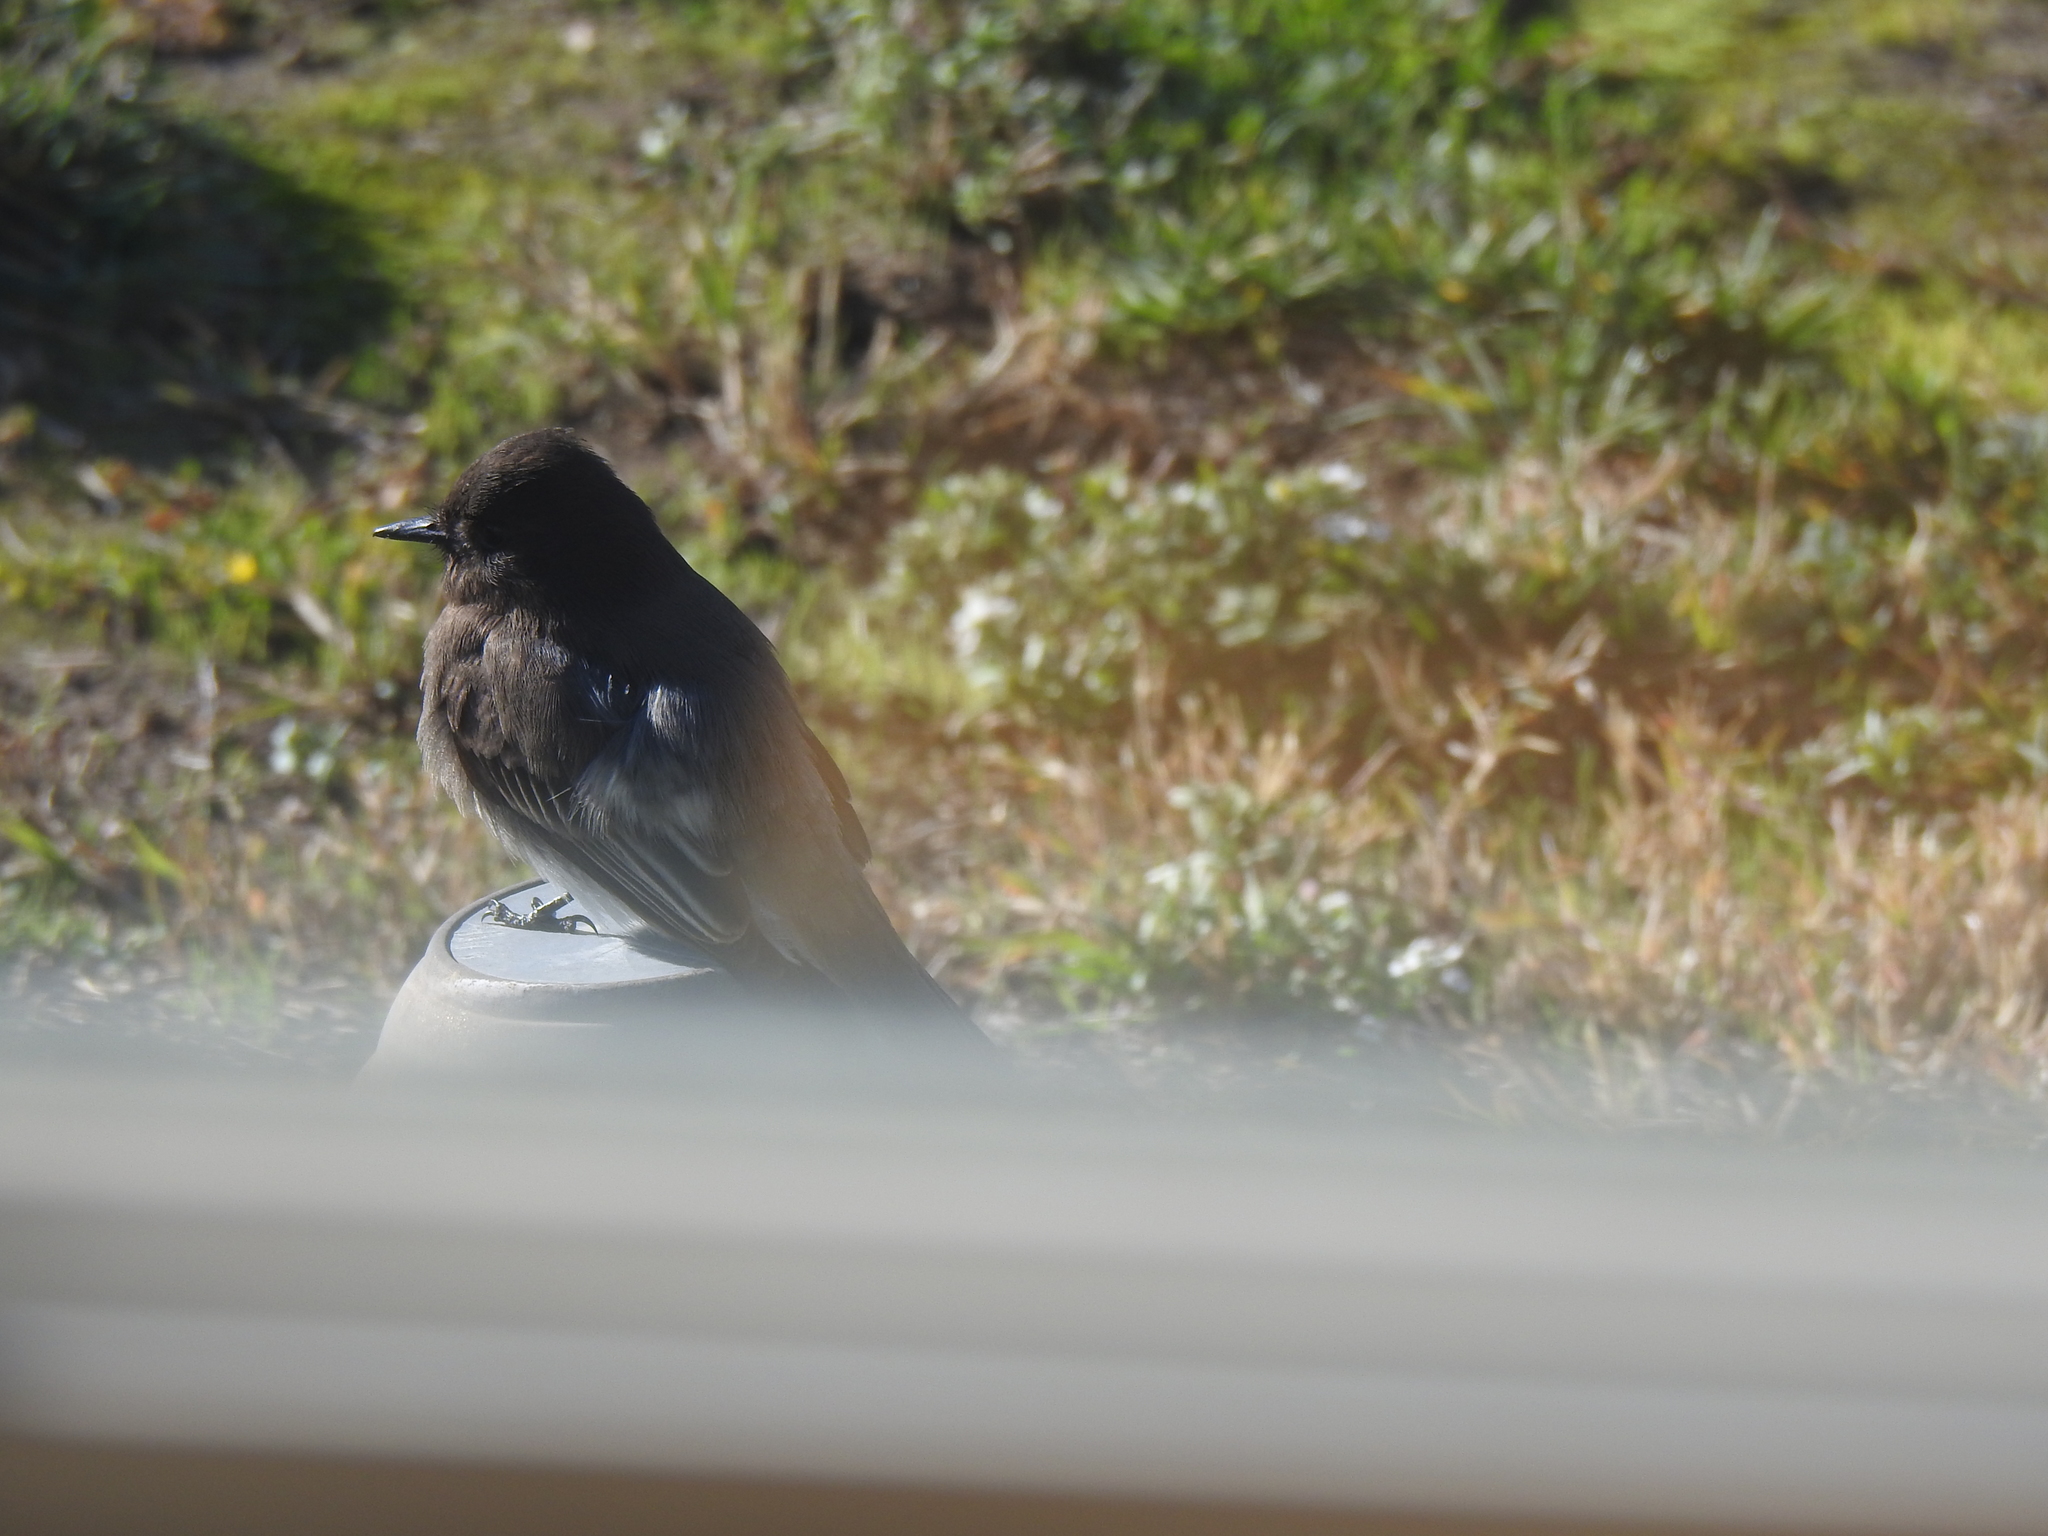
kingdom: Animalia
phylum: Chordata
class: Aves
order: Passeriformes
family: Tyrannidae
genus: Sayornis
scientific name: Sayornis nigricans
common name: Black phoebe
